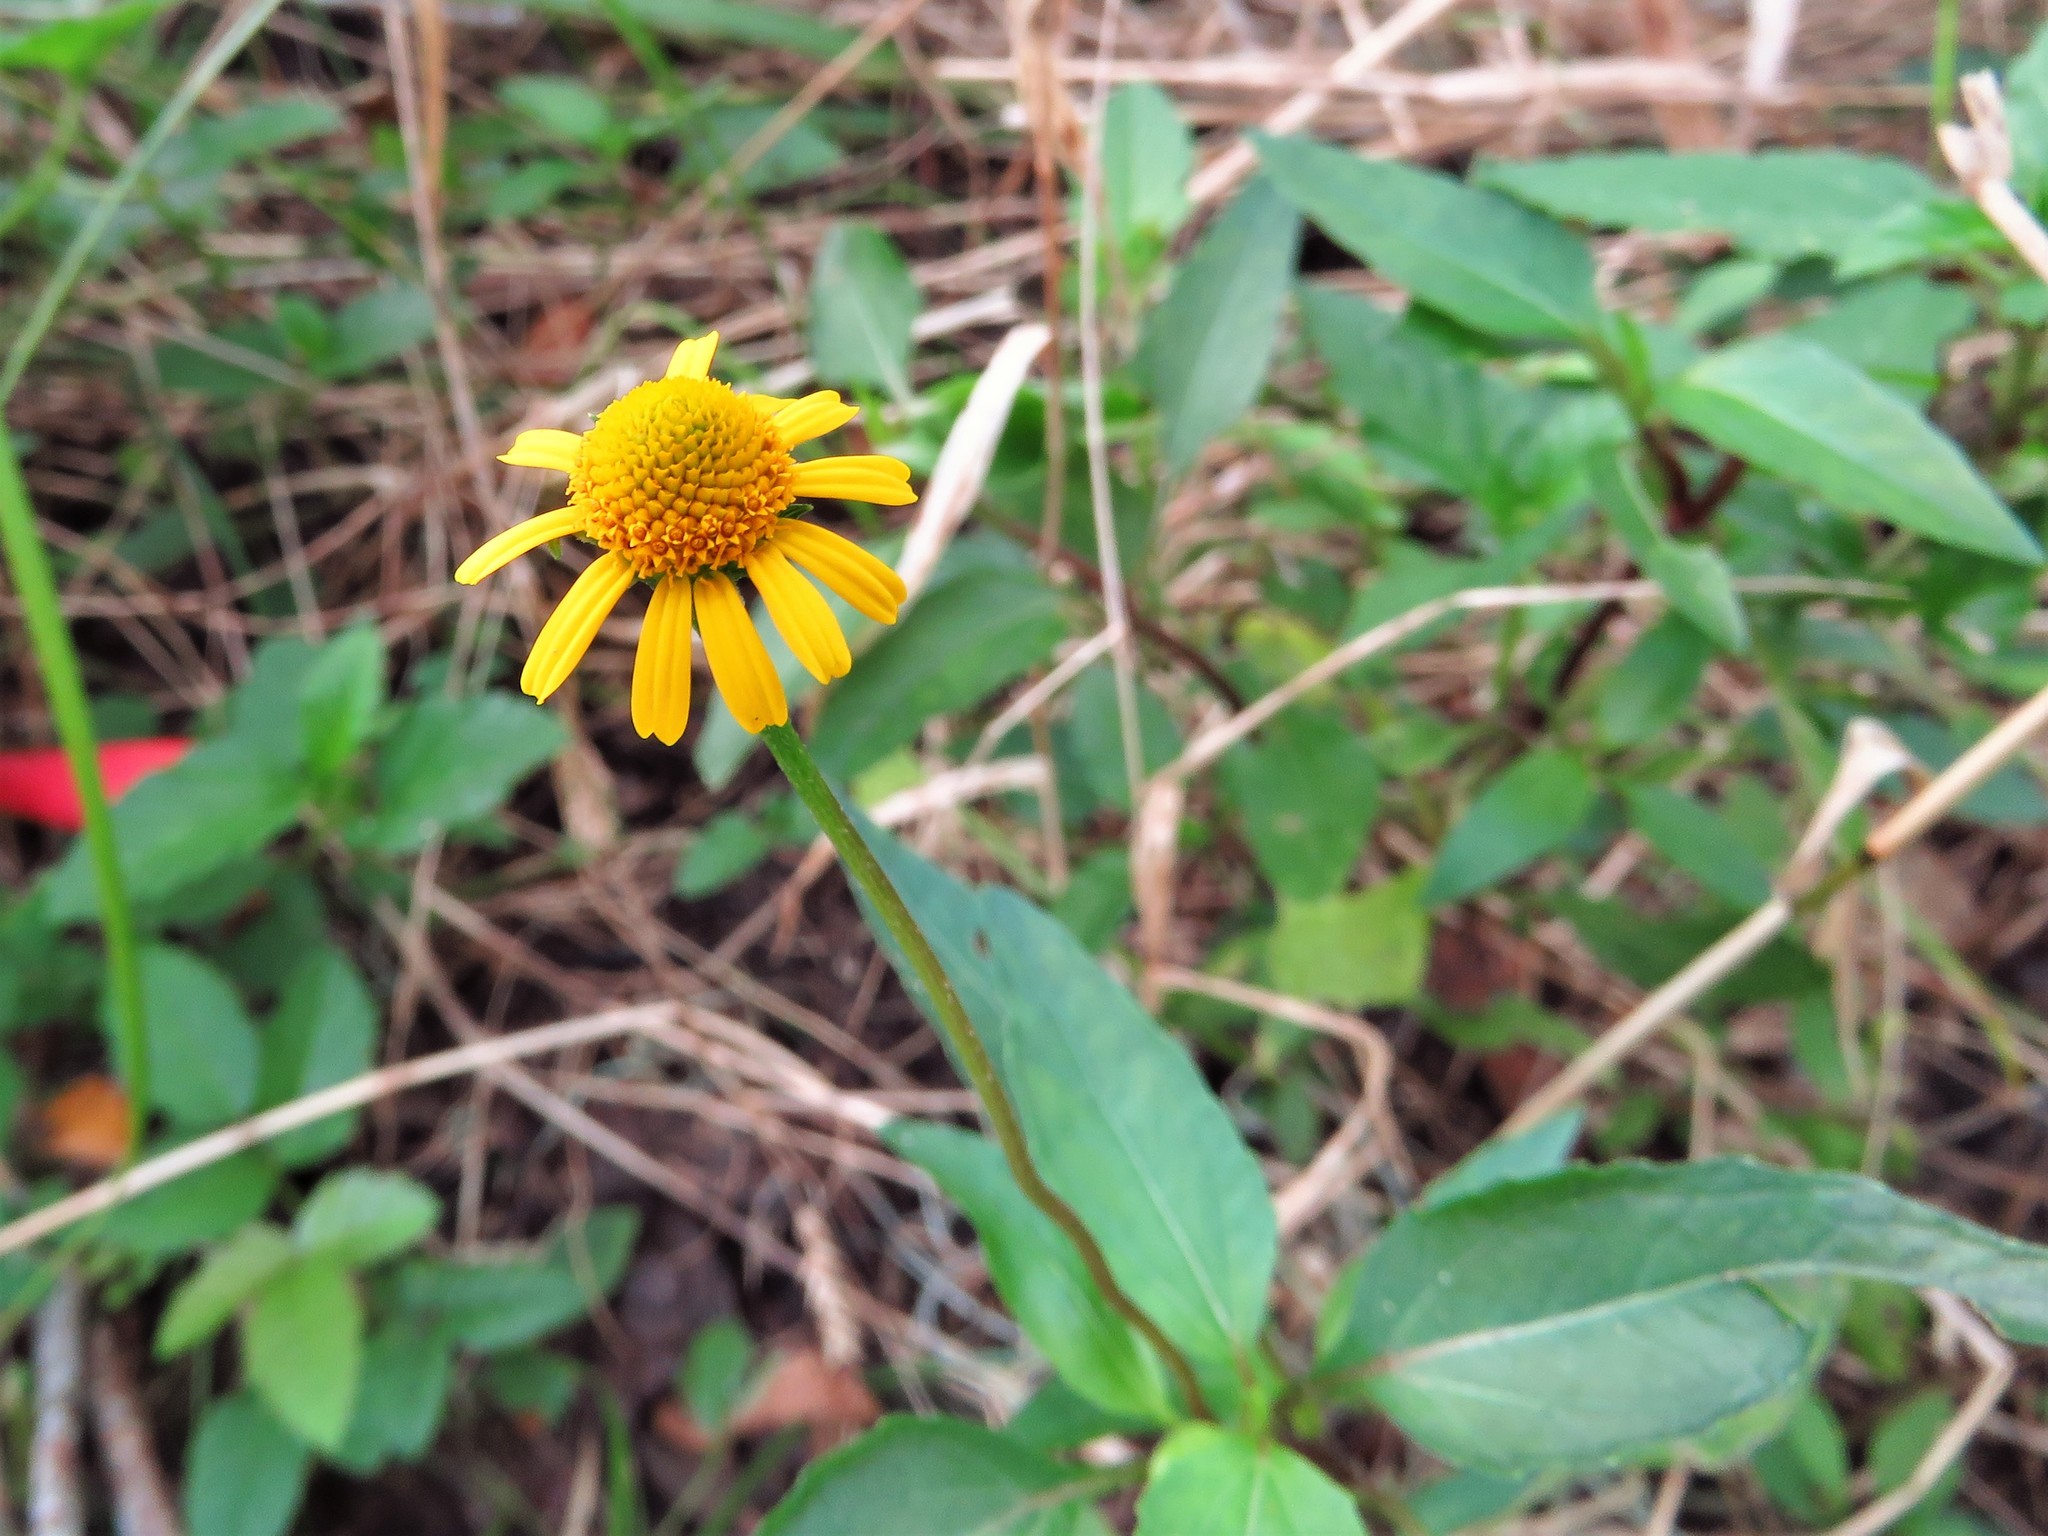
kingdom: Plantae
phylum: Tracheophyta
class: Magnoliopsida
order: Asterales
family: Asteraceae
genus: Acmella
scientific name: Acmella repens
